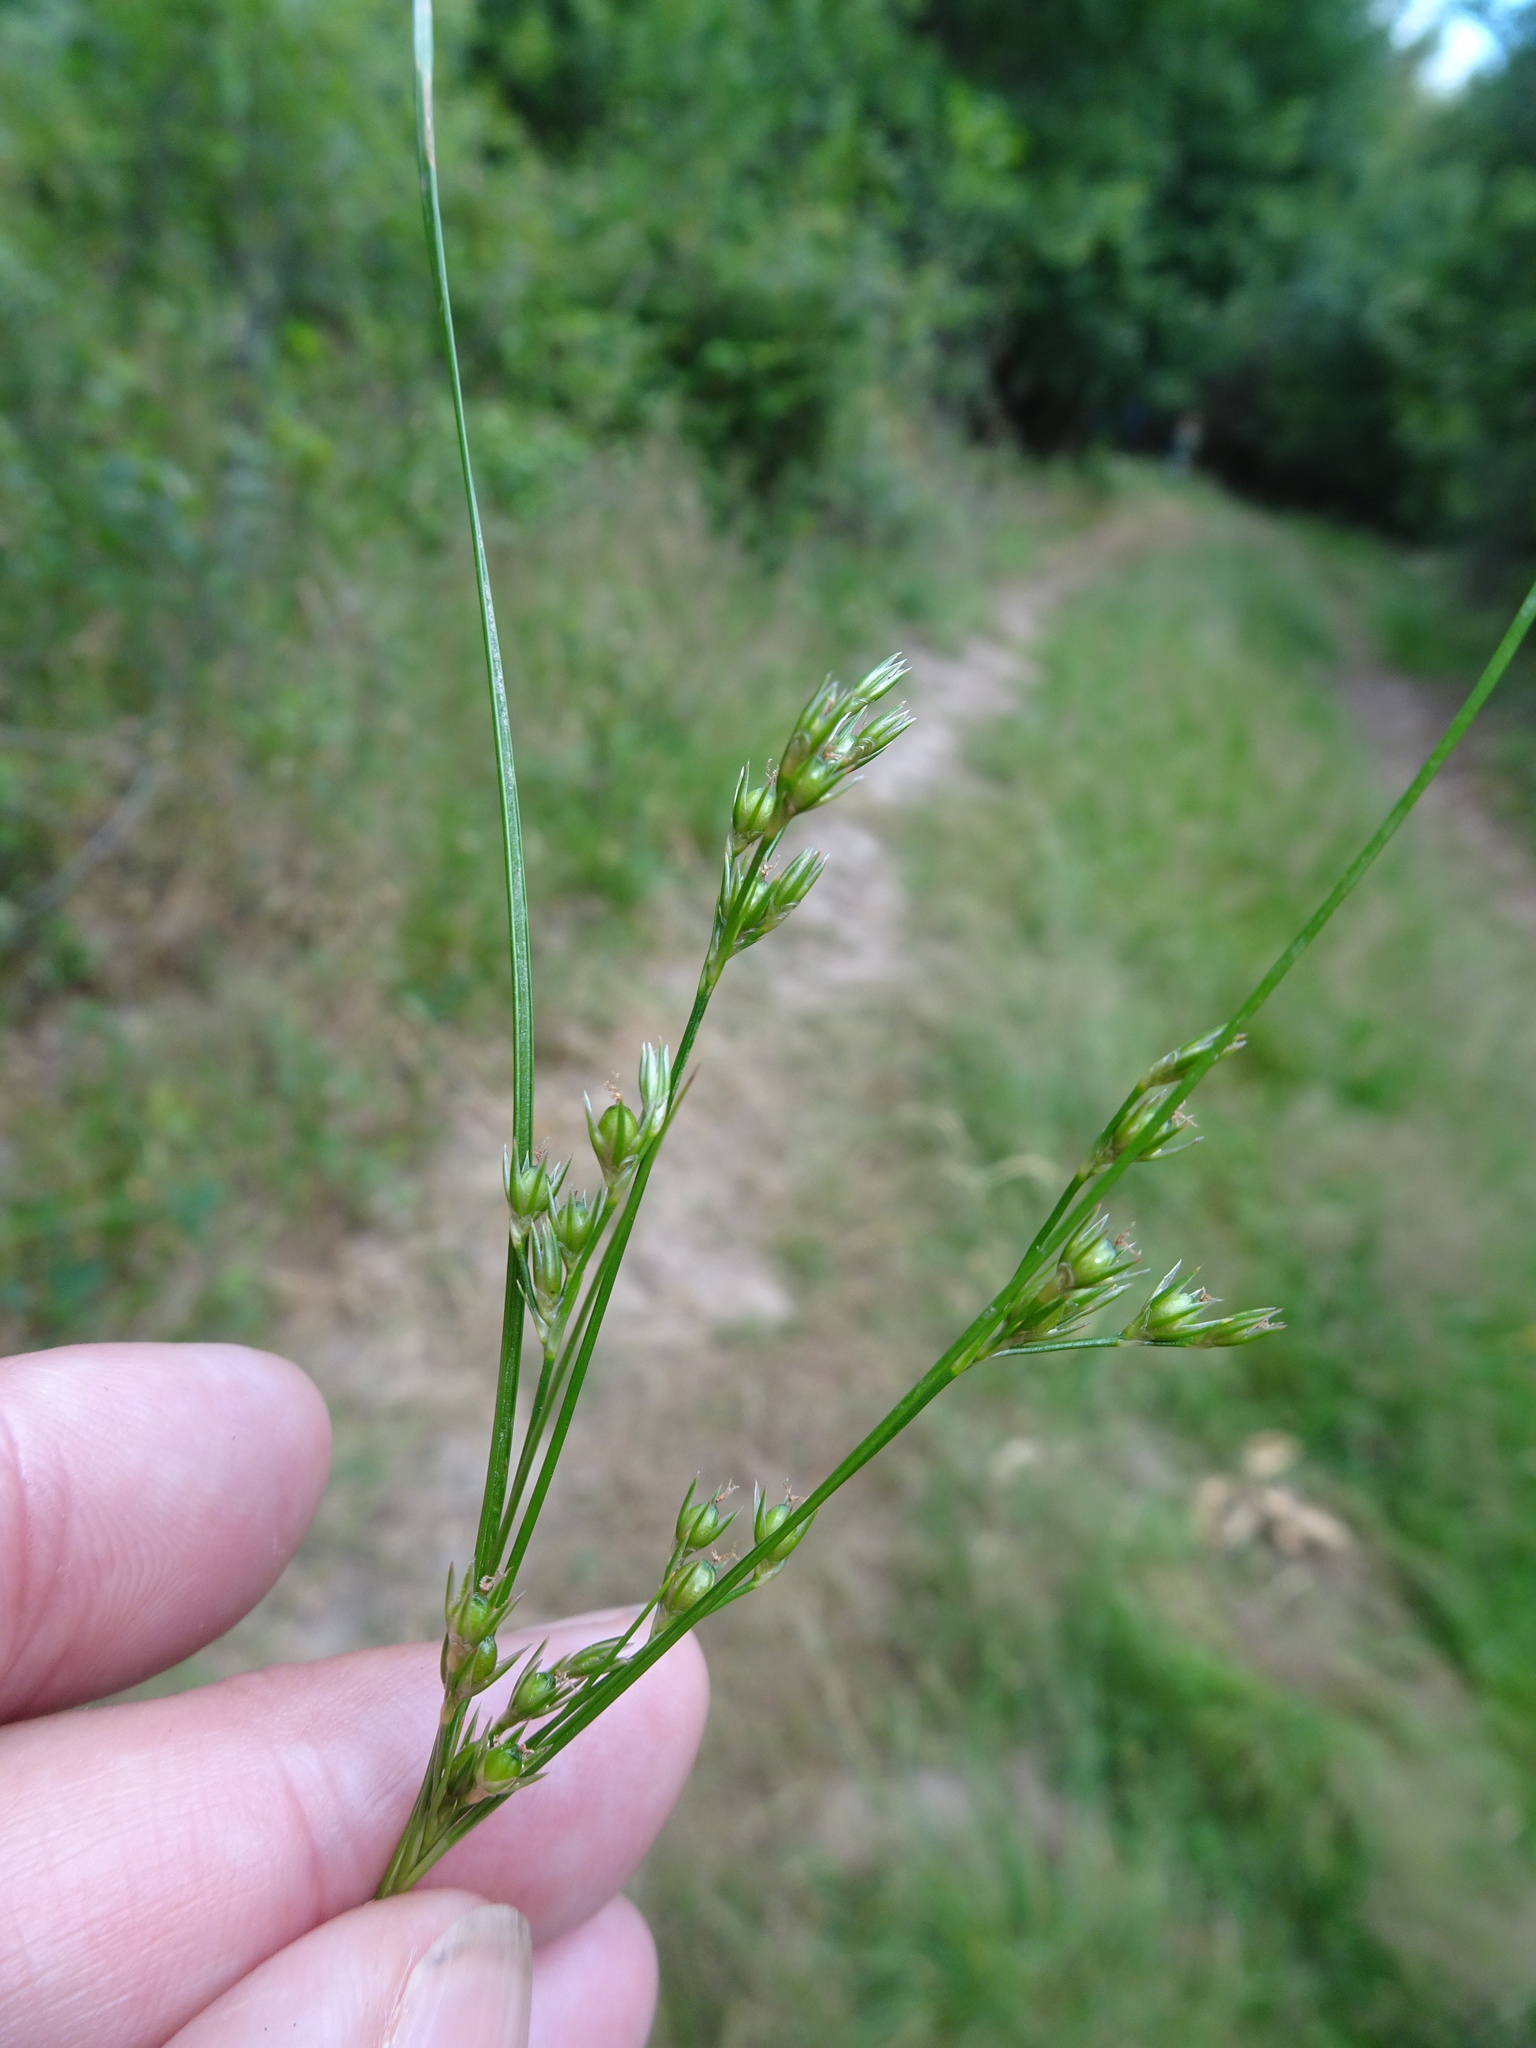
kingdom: Plantae
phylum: Tracheophyta
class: Liliopsida
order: Poales
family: Juncaceae
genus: Juncus
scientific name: Juncus tenuis
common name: Slender rush
